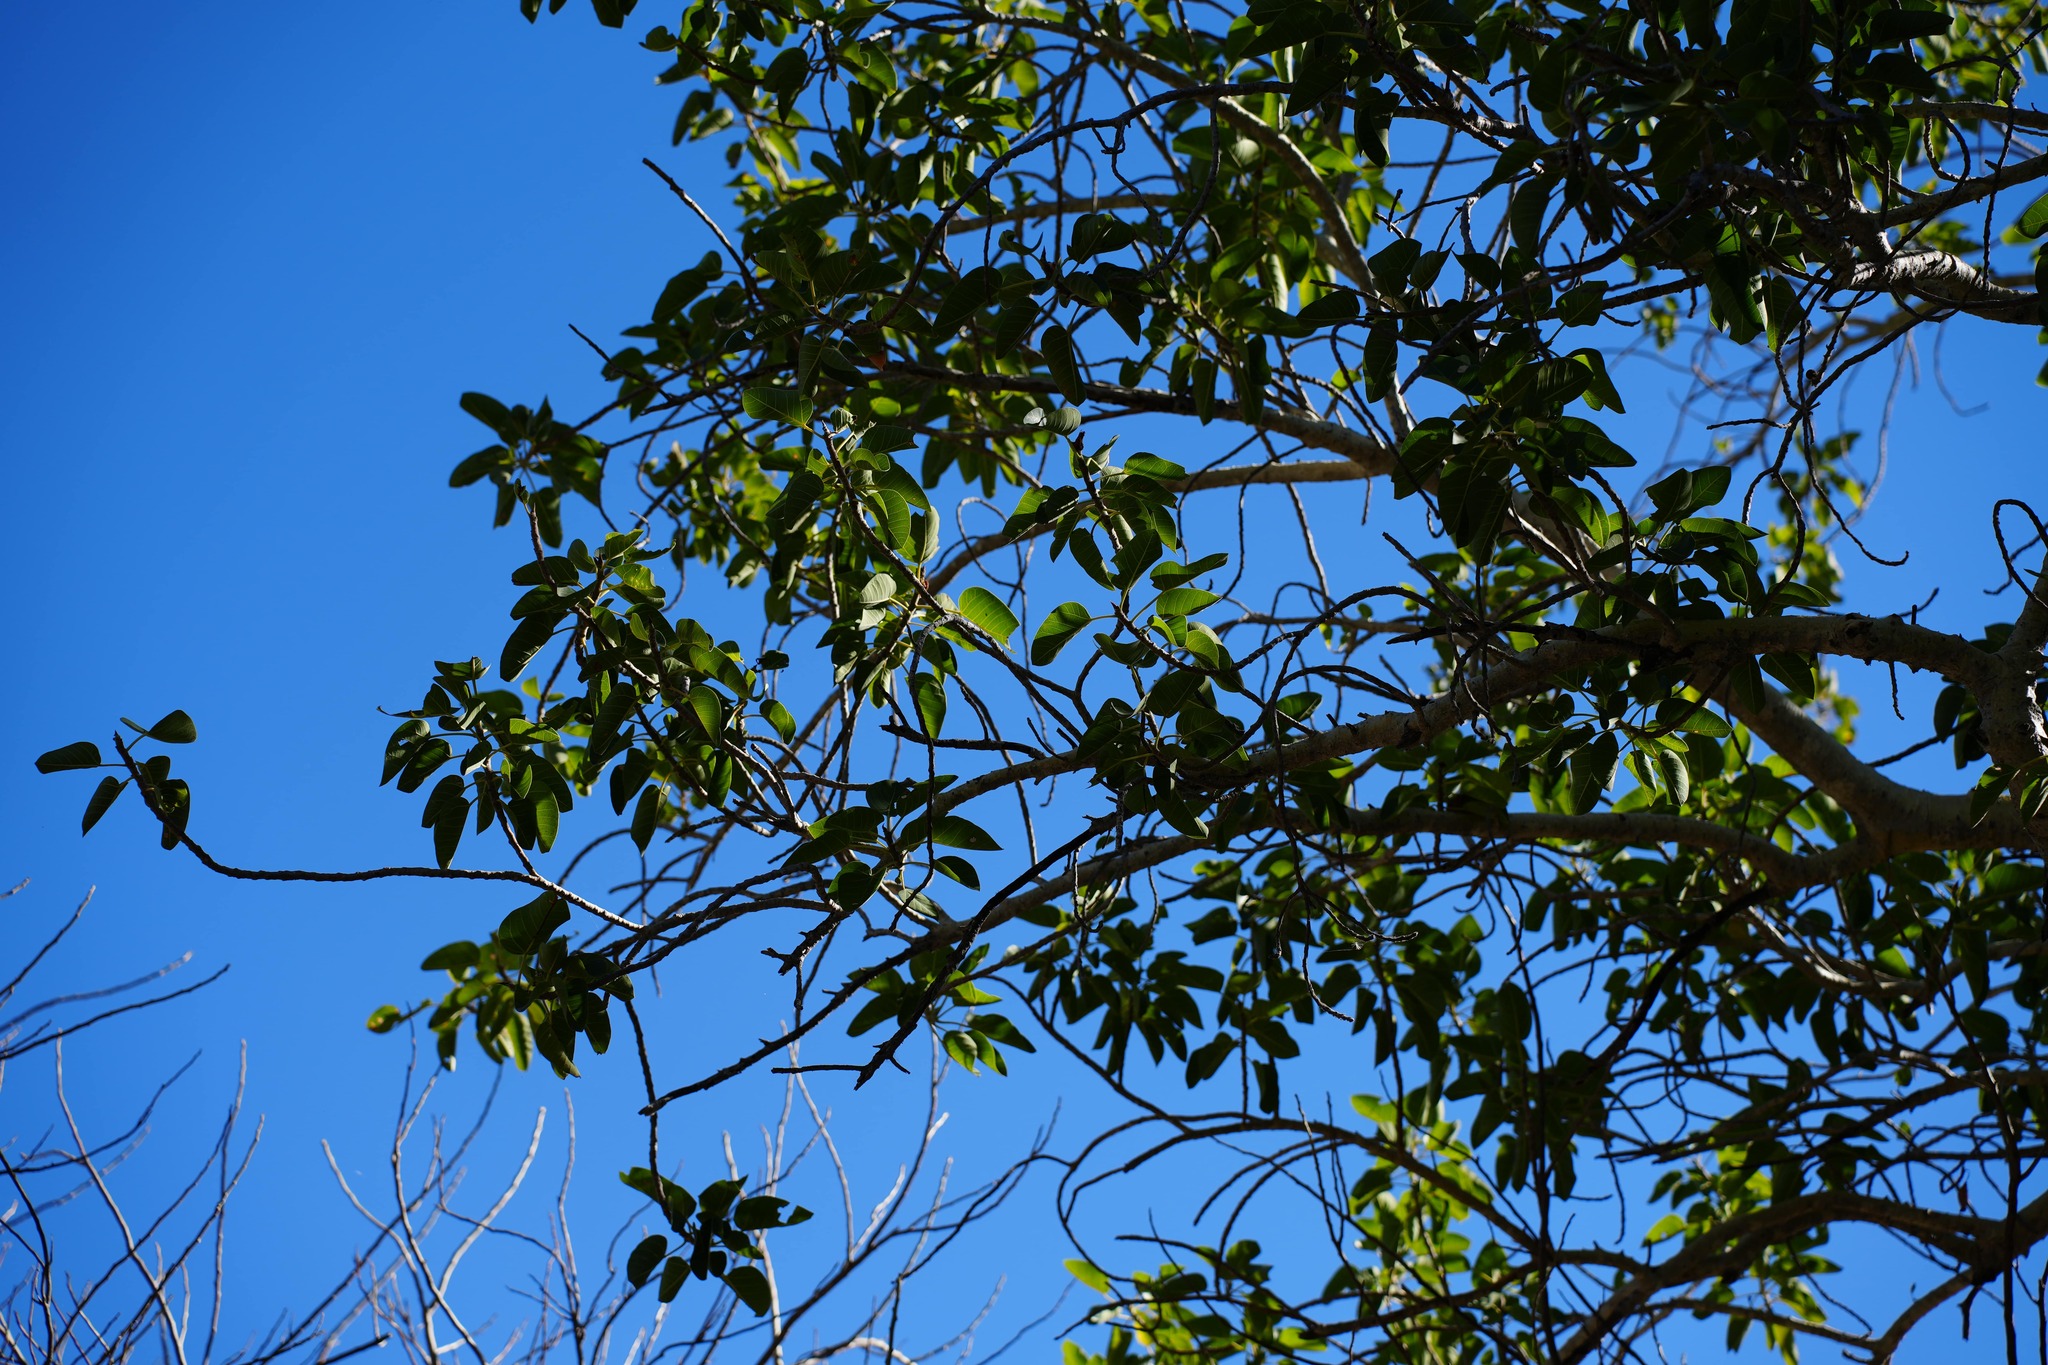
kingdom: Plantae
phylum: Tracheophyta
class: Magnoliopsida
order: Rosales
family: Moraceae
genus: Ficus
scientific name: Ficus petiolaris
